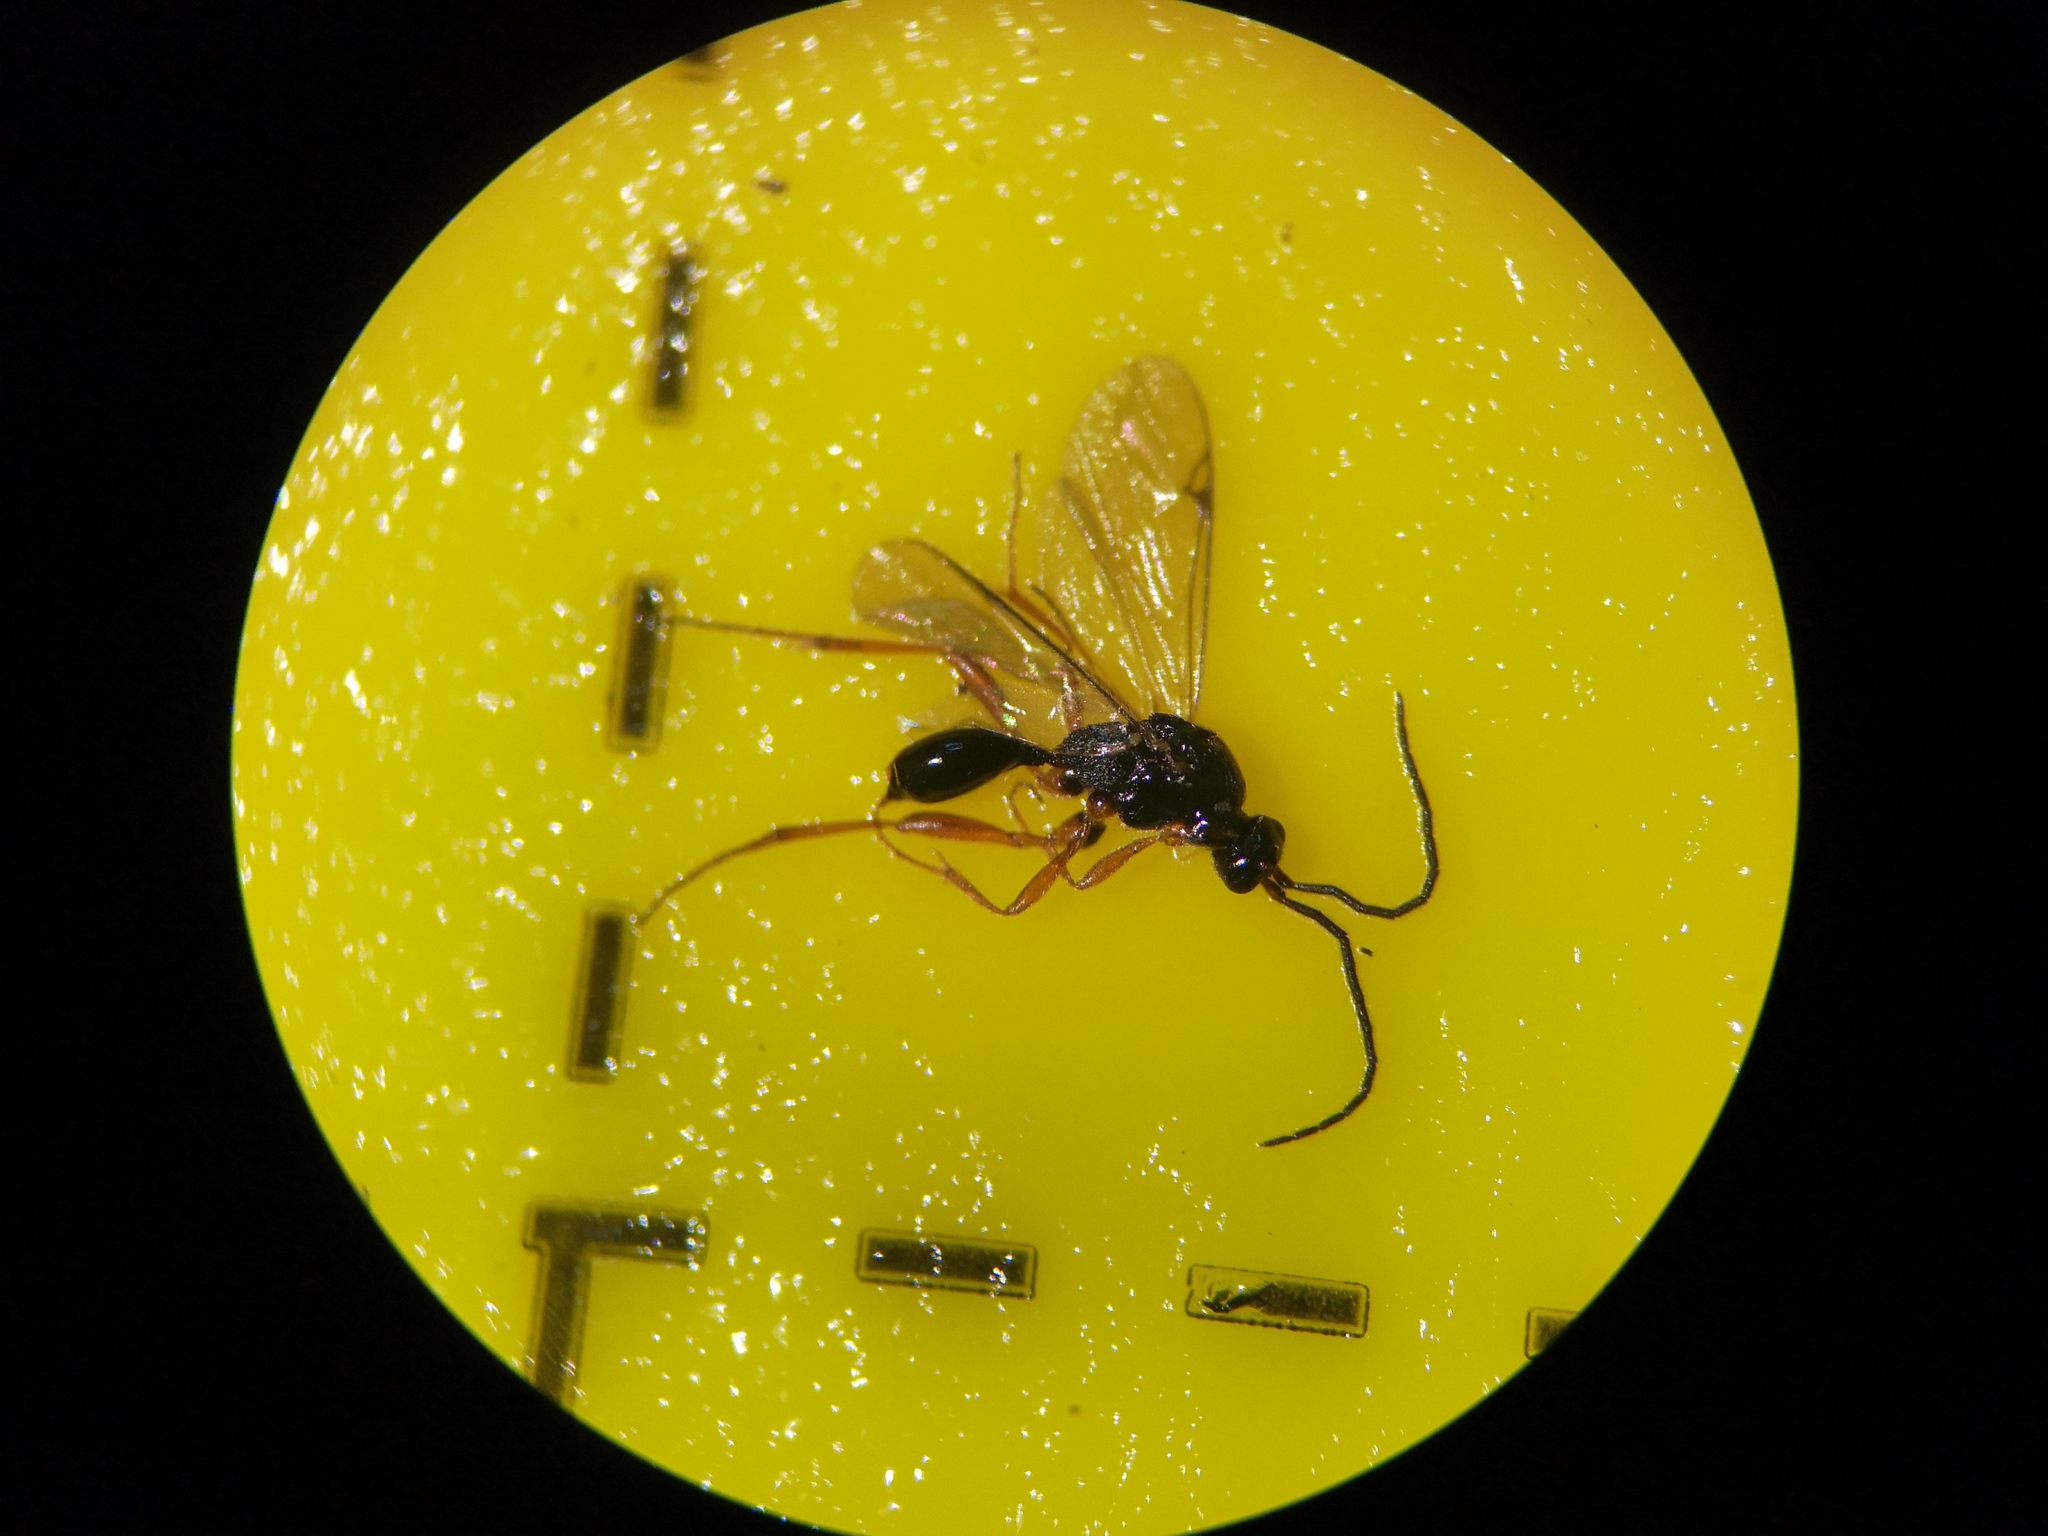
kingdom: Animalia
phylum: Arthropoda
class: Insecta
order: Hymenoptera
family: Proctotrupidae
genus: Phaneroserphus
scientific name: Phaneroserphus calcar
